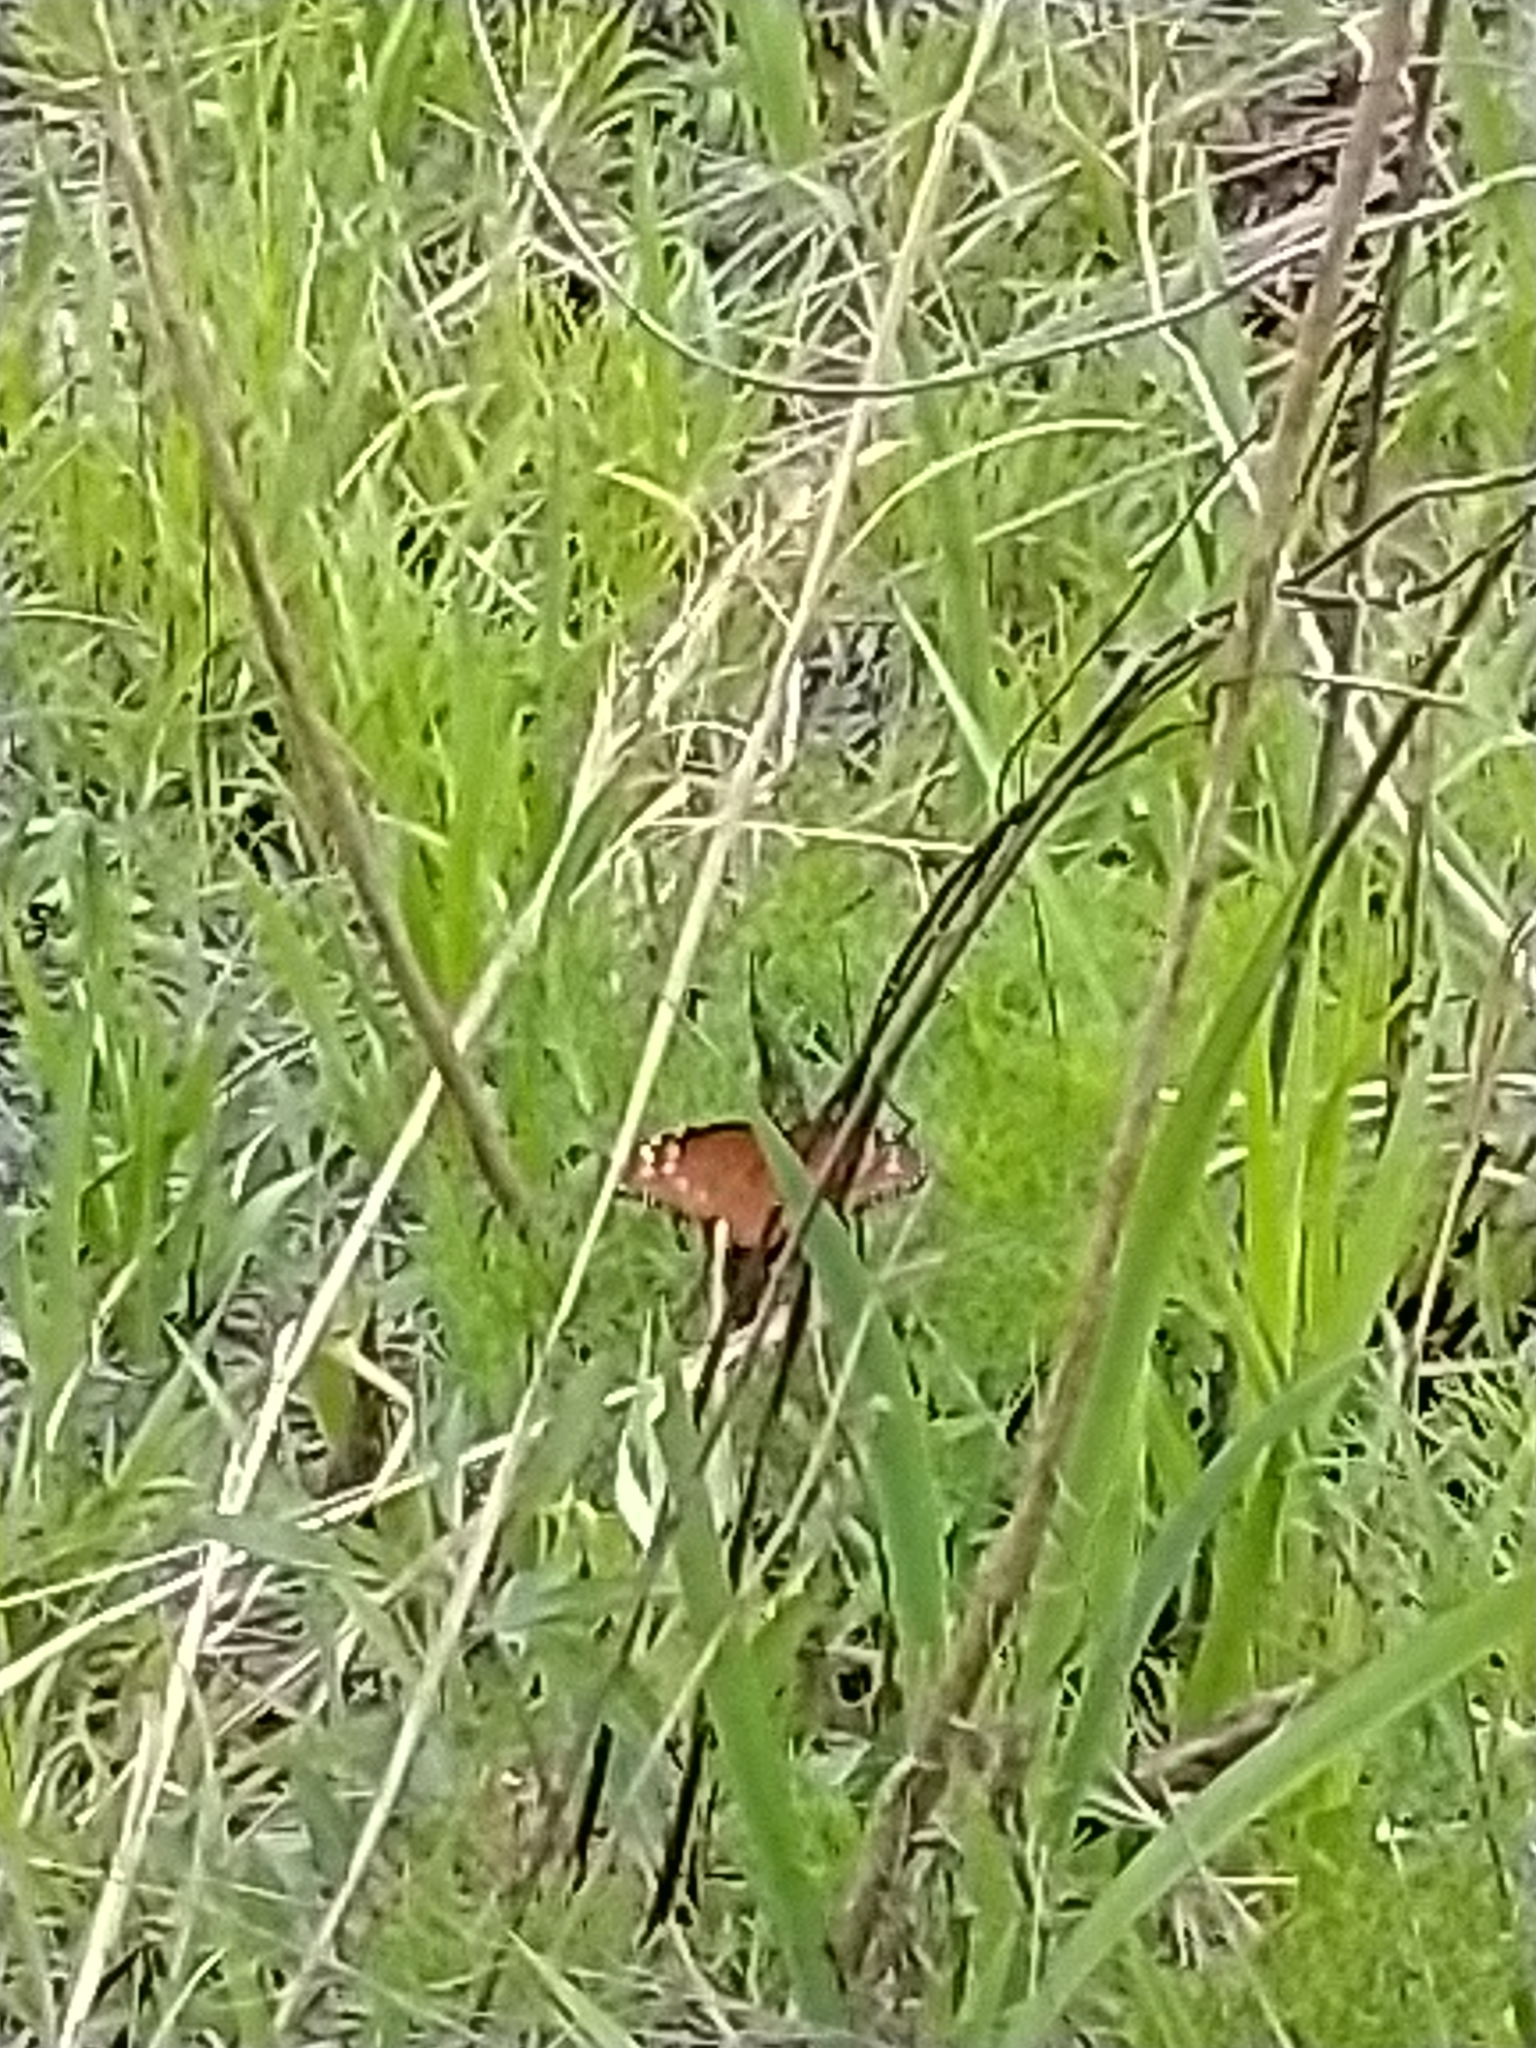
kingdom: Animalia
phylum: Arthropoda
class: Insecta
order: Lepidoptera
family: Nymphalidae
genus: Danaus
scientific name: Danaus gilippus
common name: Queen
